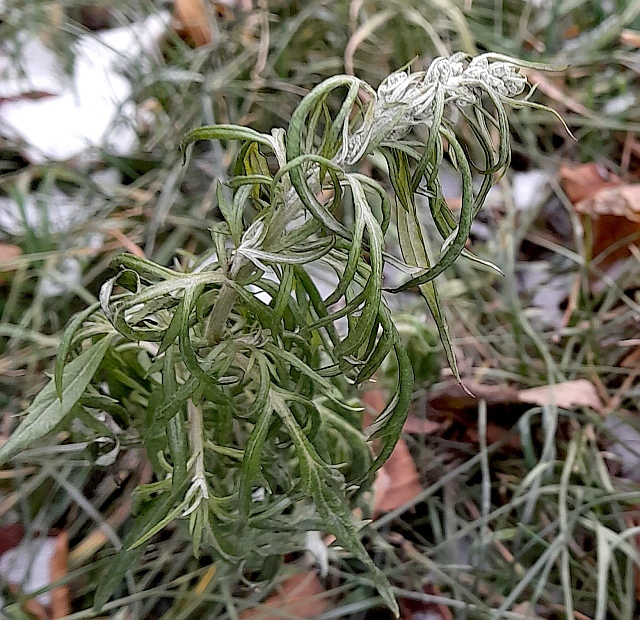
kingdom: Plantae
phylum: Tracheophyta
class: Magnoliopsida
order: Asterales
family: Asteraceae
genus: Artemisia
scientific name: Artemisia vulgaris
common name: Mugwort
